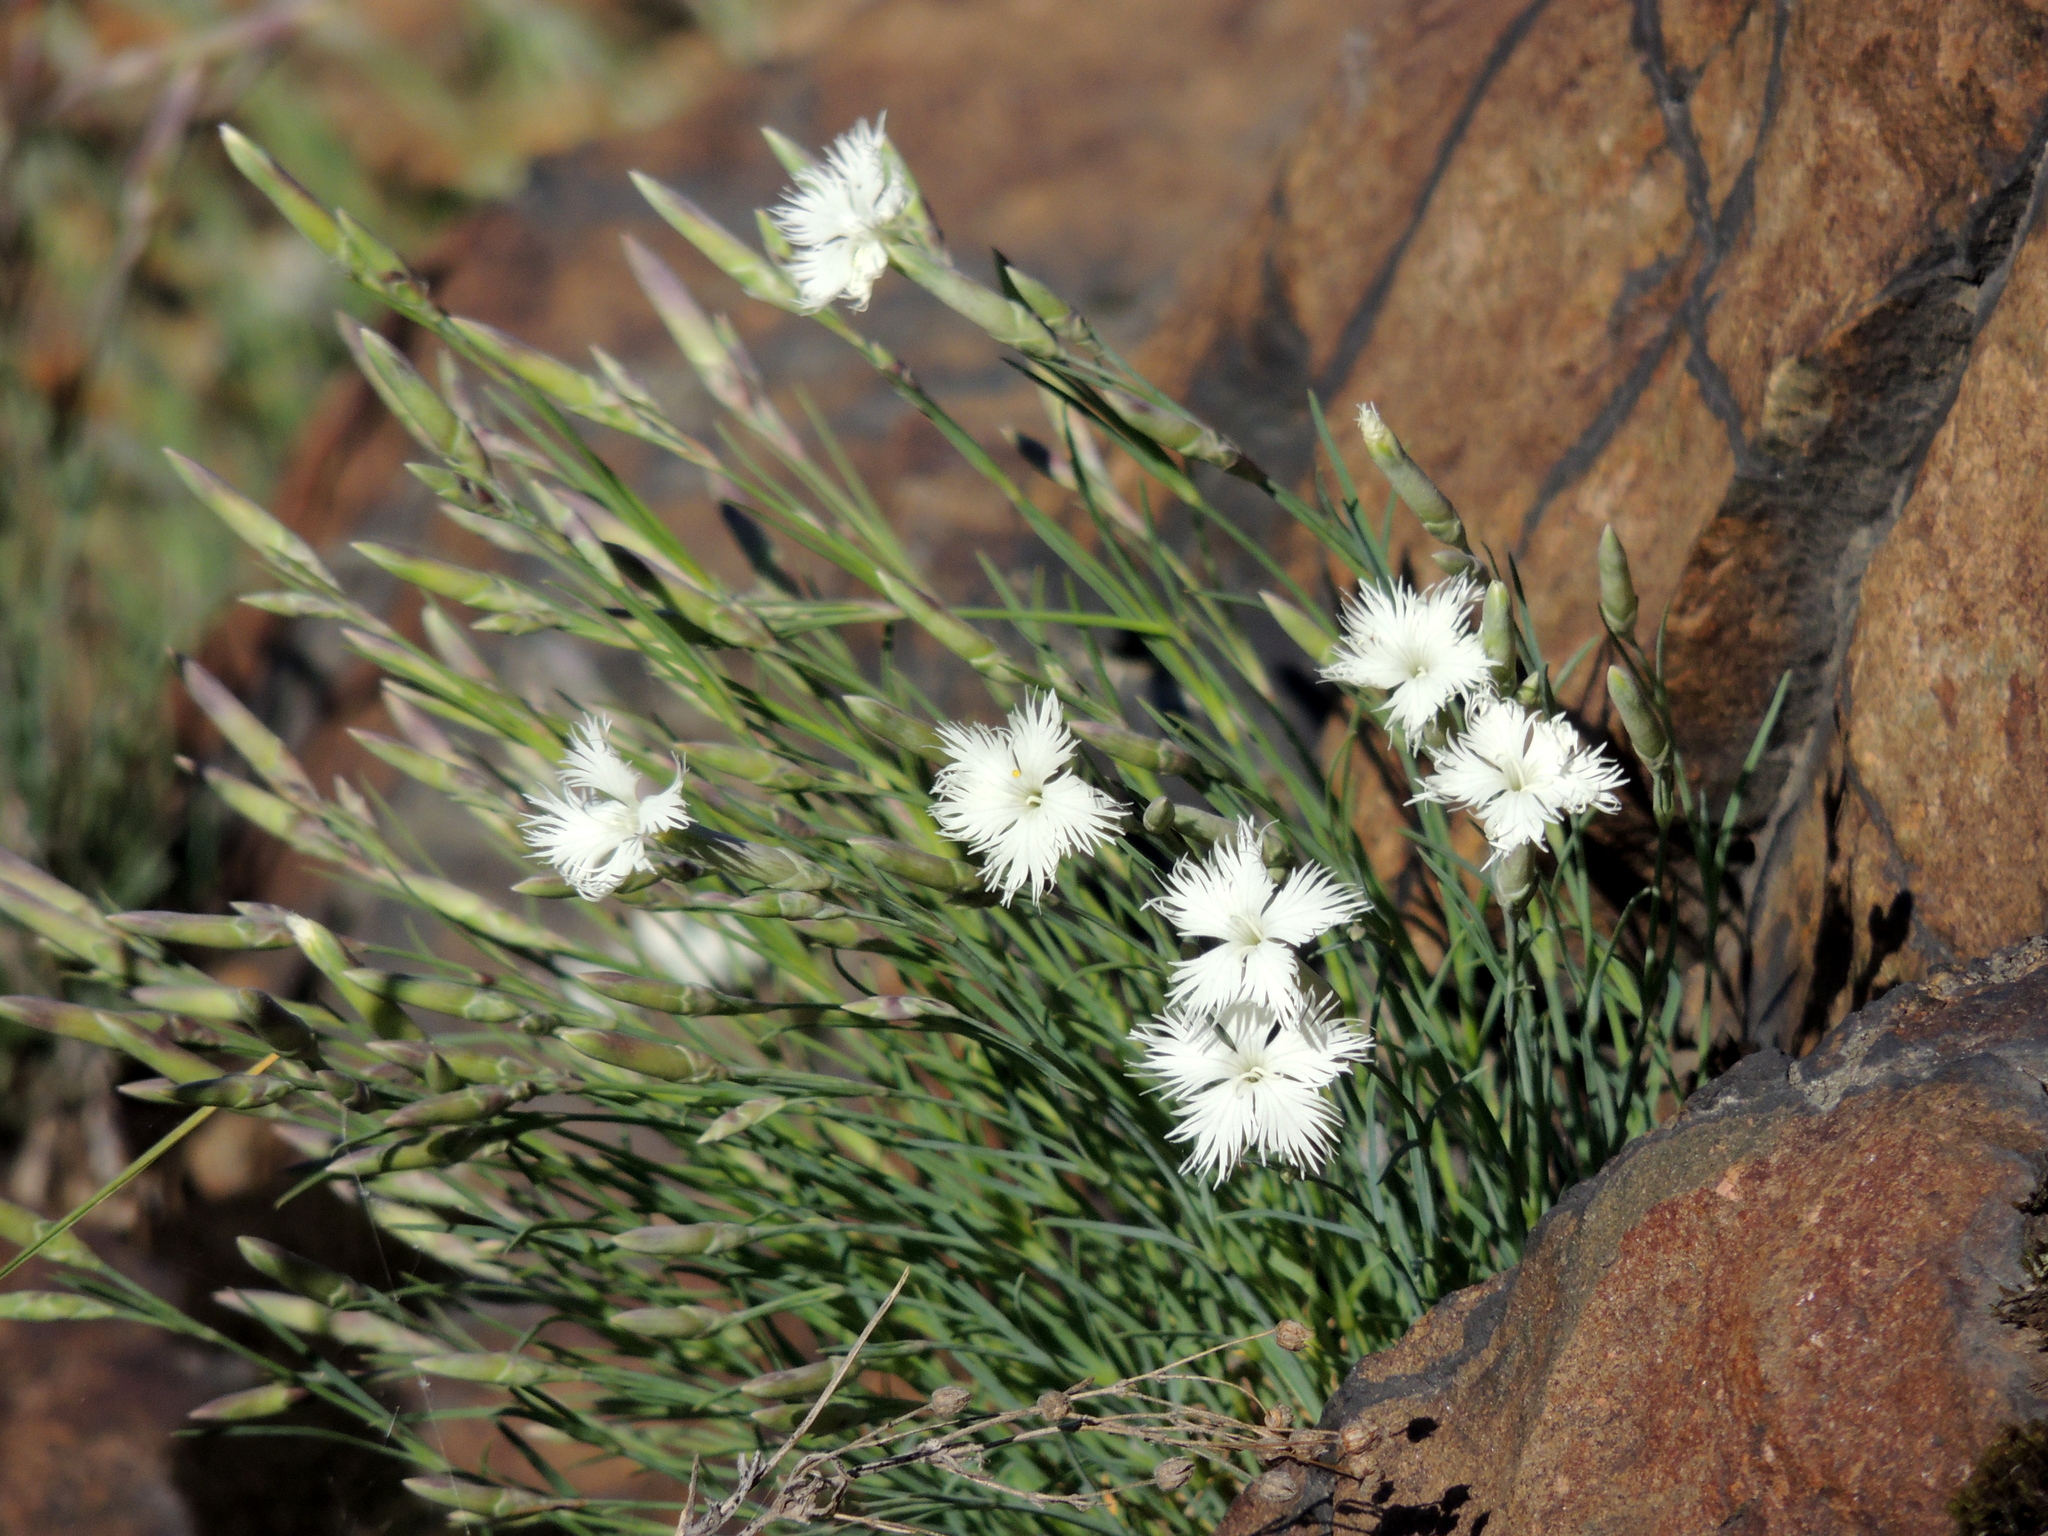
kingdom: Plantae
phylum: Tracheophyta
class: Magnoliopsida
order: Caryophyllales
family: Caryophyllaceae
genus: Dianthus
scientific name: Dianthus acicularis
